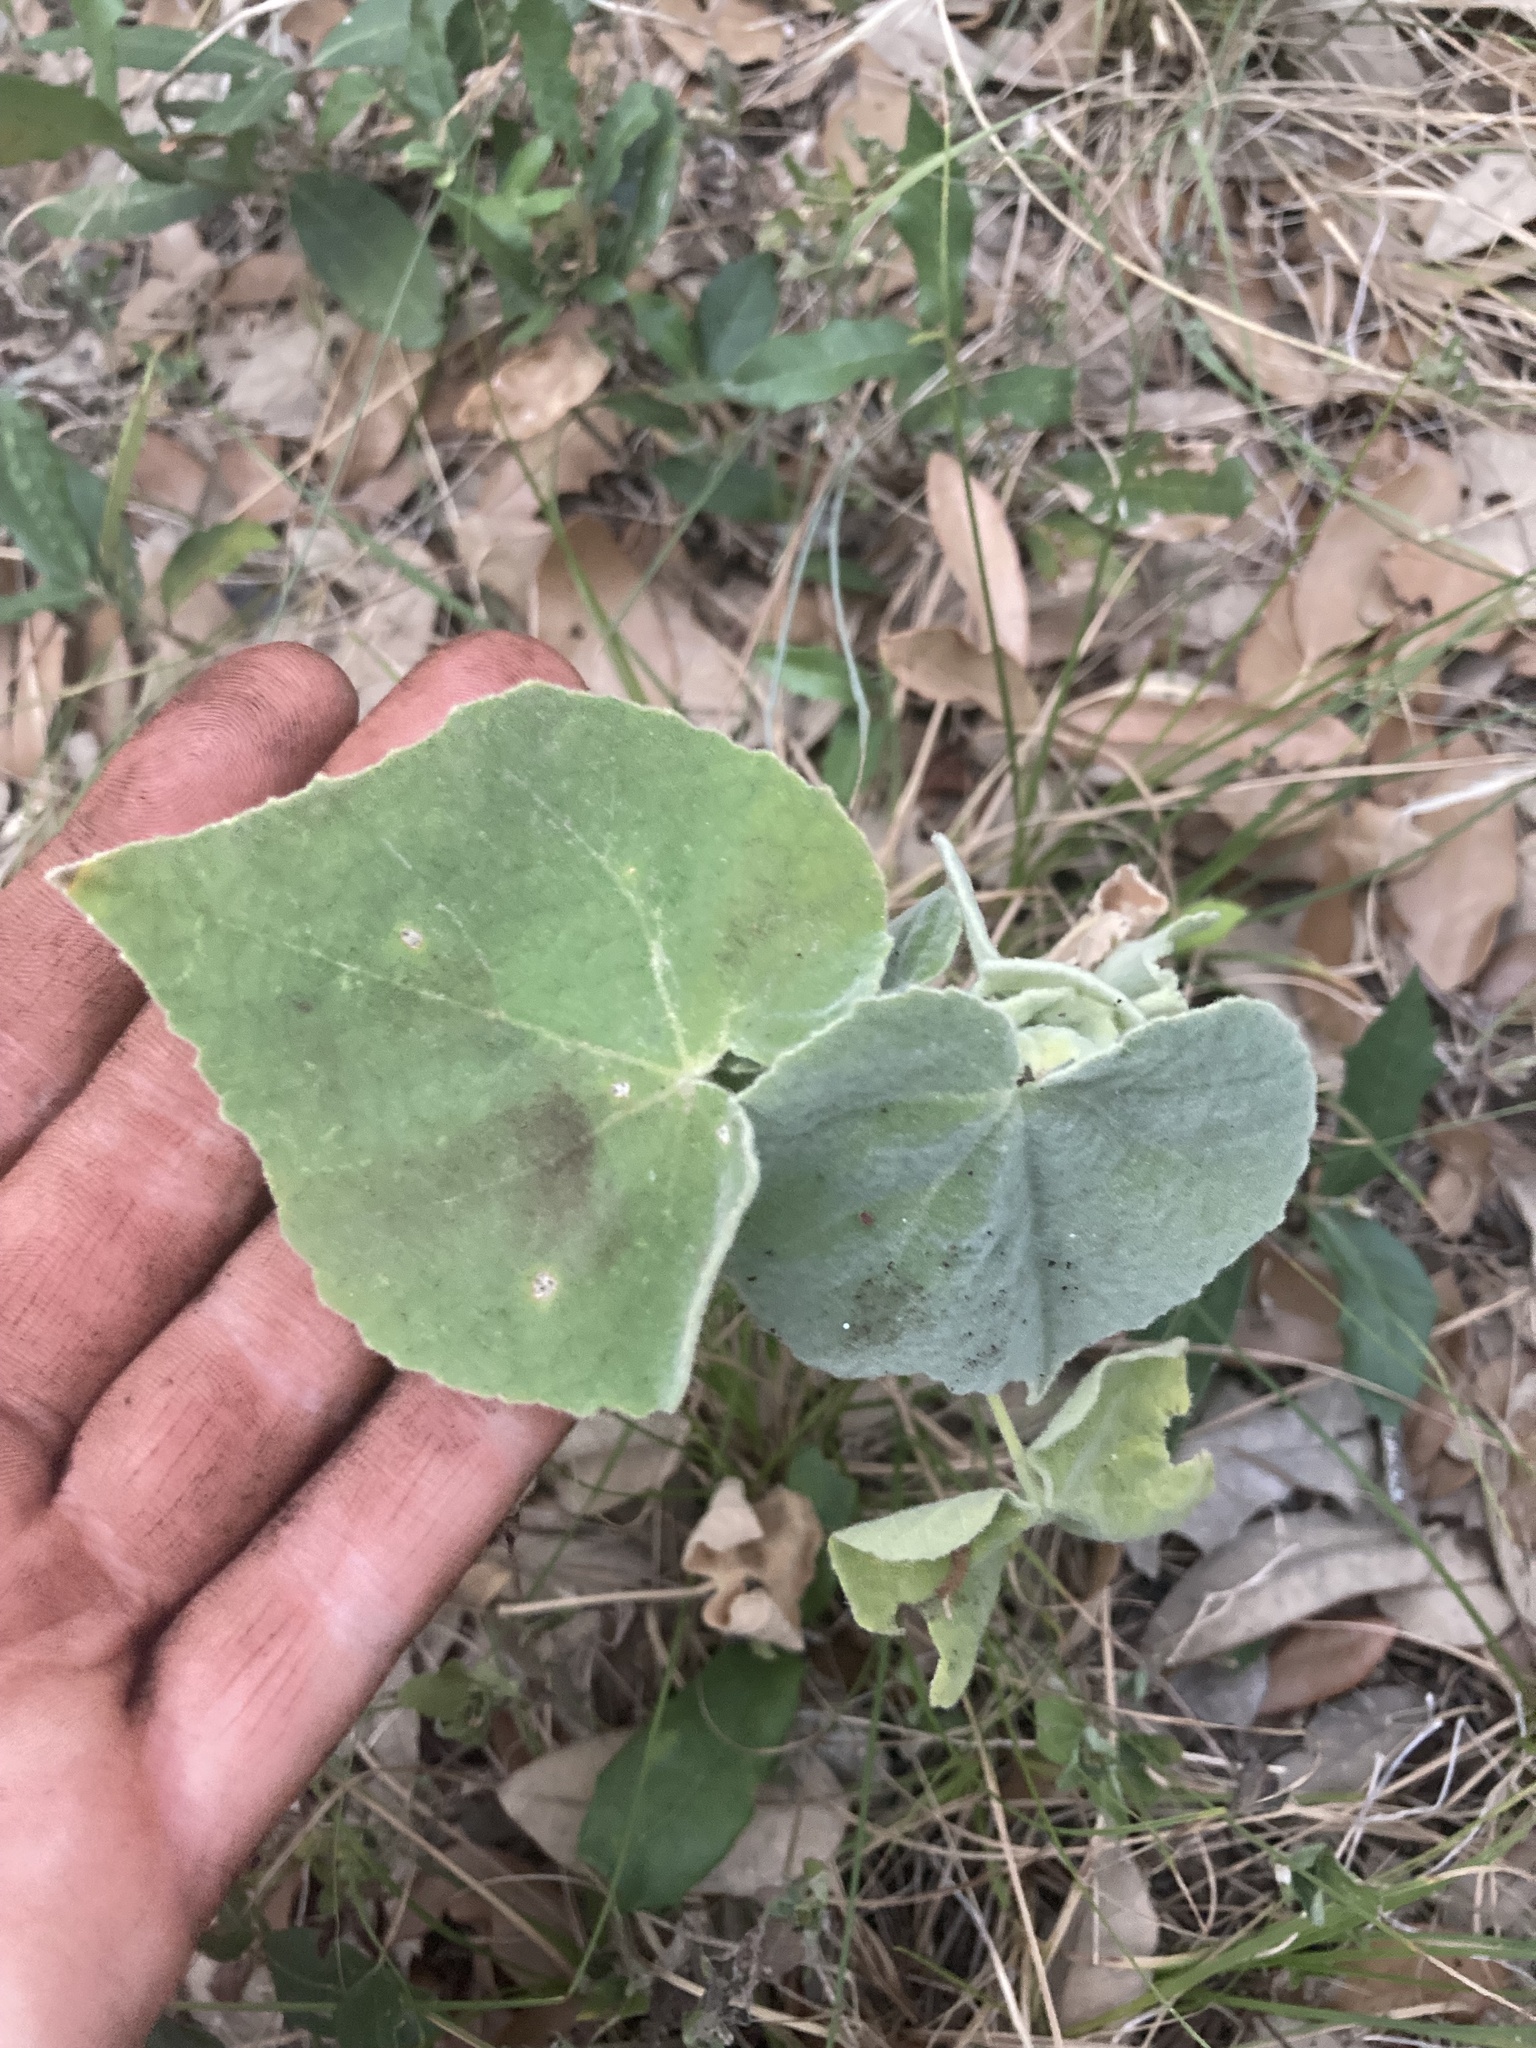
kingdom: Plantae
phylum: Tracheophyta
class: Magnoliopsida
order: Malvales
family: Malvaceae
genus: Allowissadula
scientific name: Allowissadula holosericea
